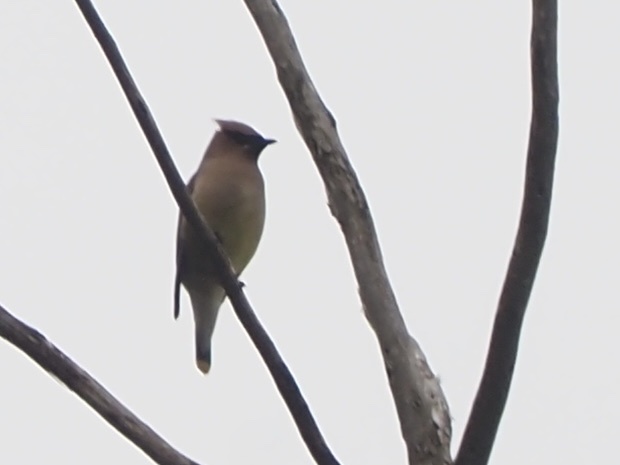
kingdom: Animalia
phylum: Chordata
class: Aves
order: Passeriformes
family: Bombycillidae
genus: Bombycilla
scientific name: Bombycilla cedrorum
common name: Cedar waxwing
